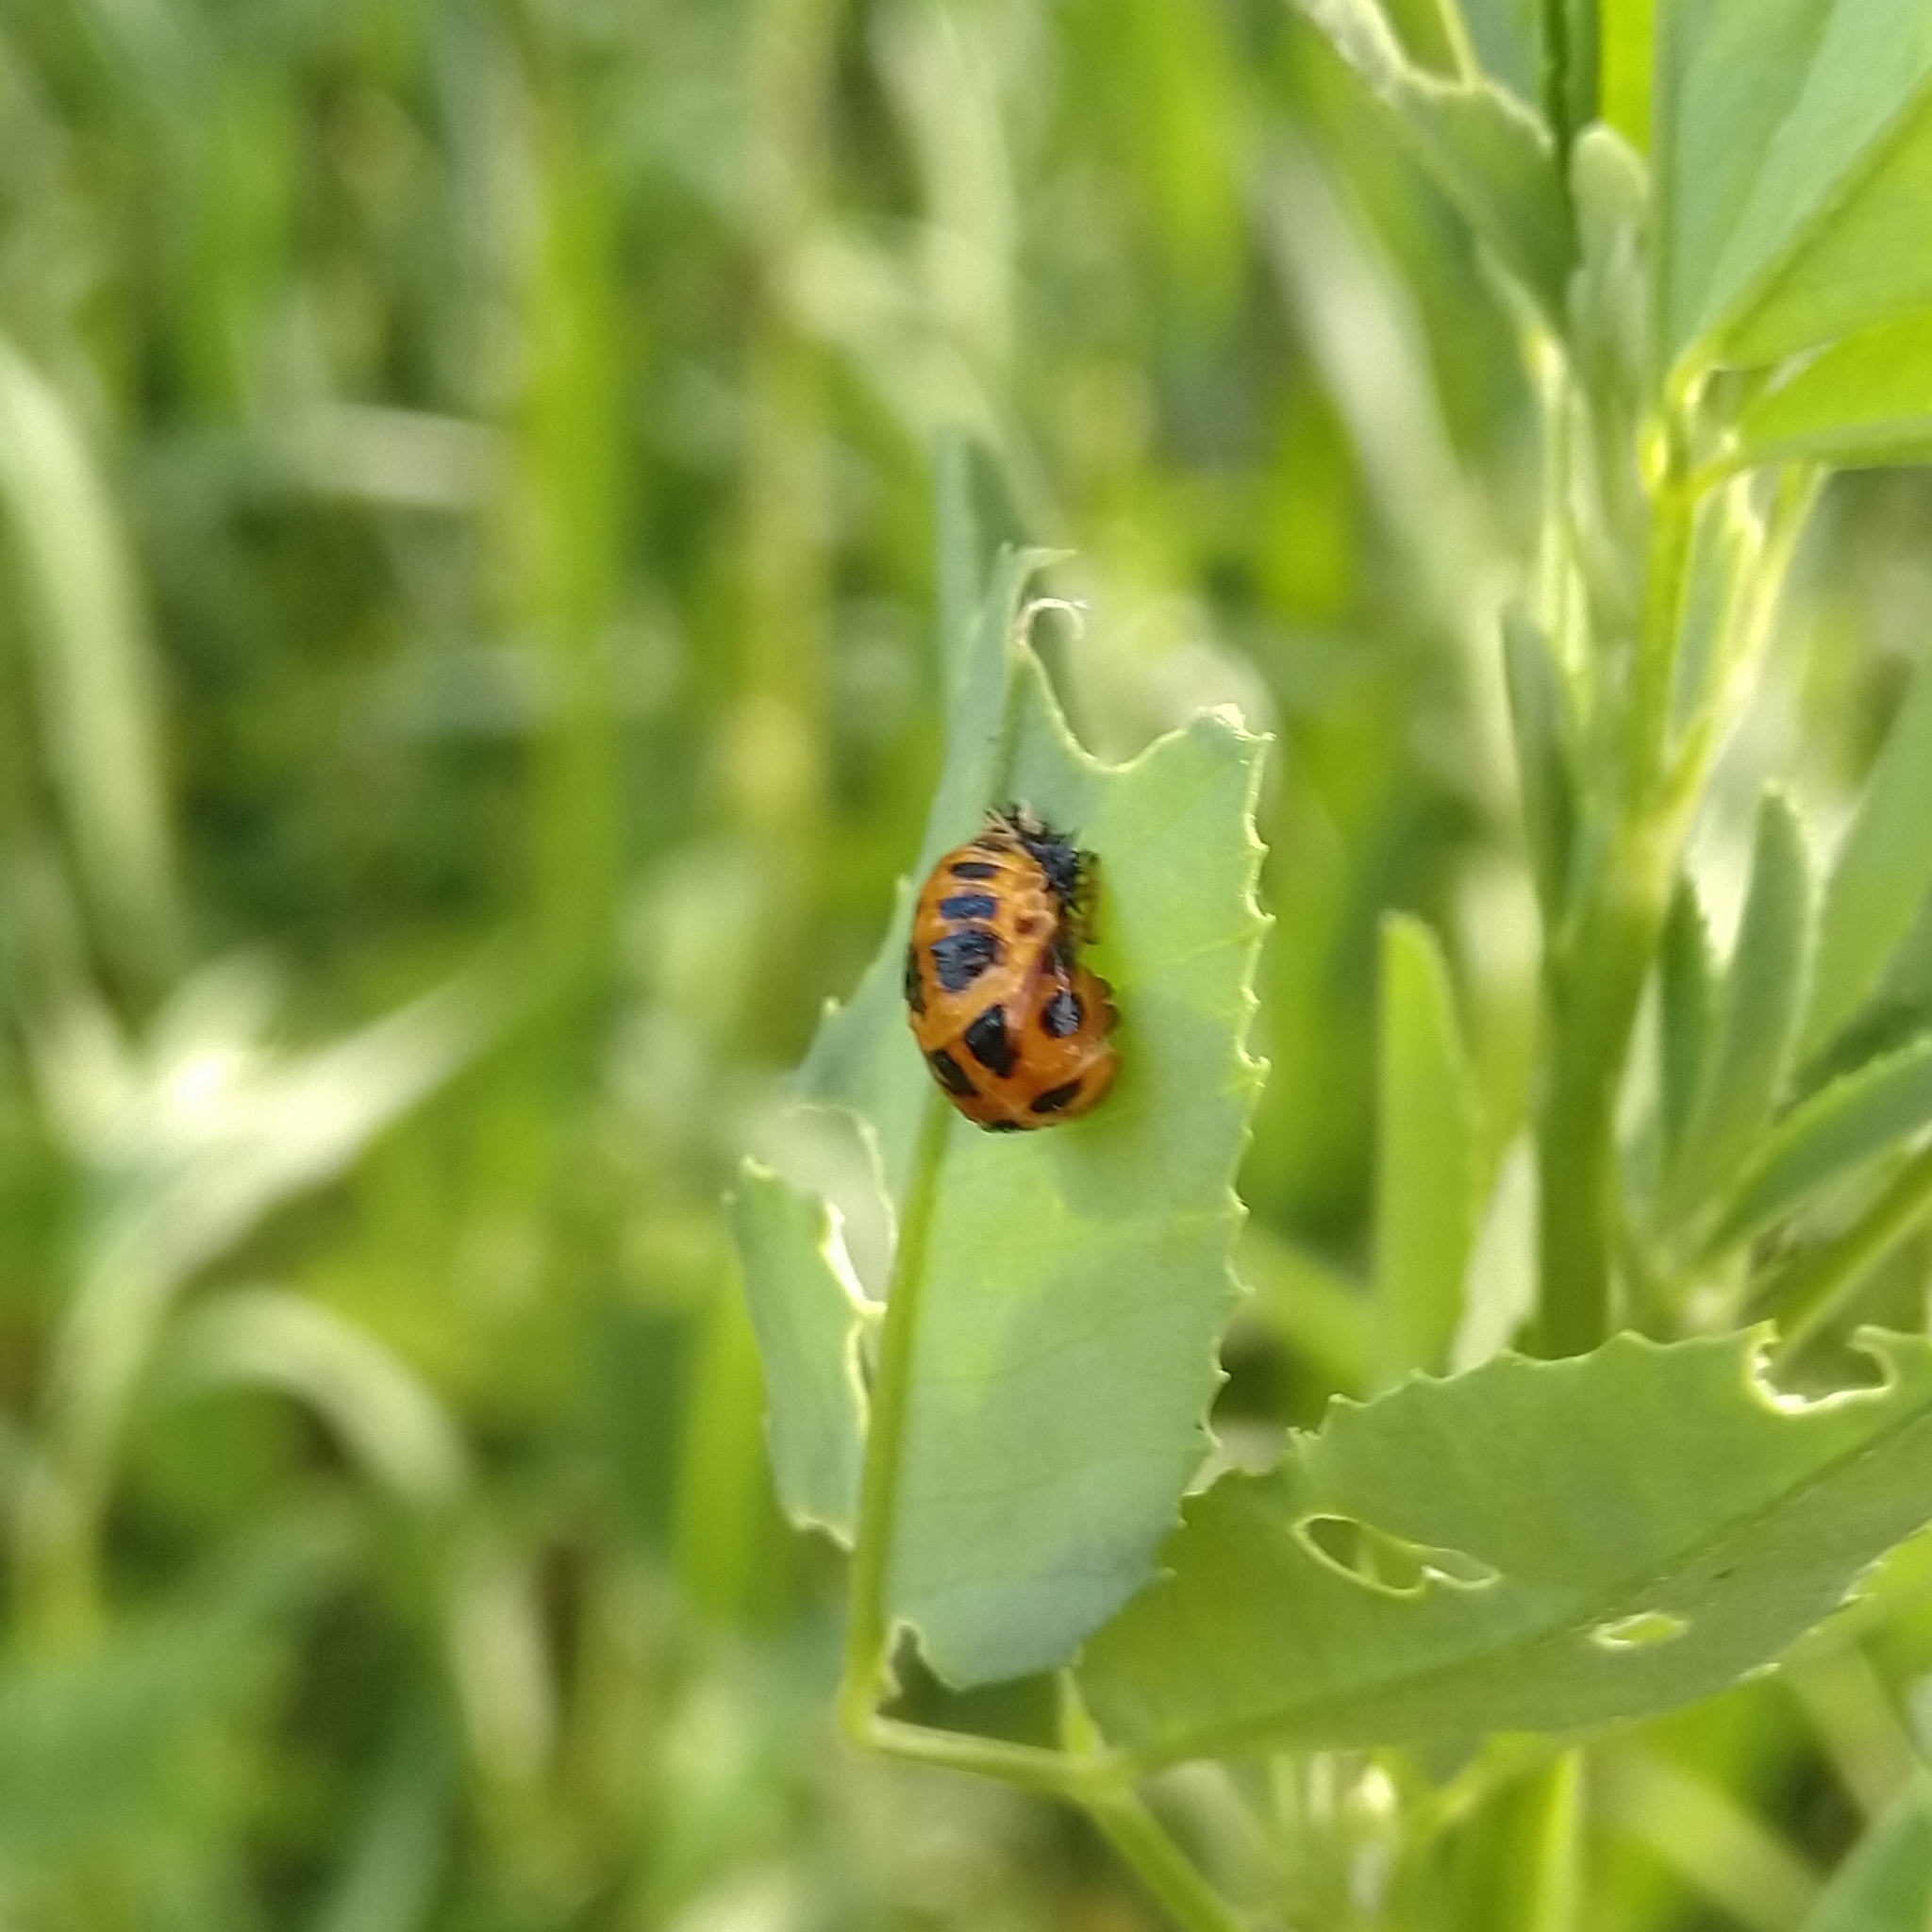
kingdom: Animalia
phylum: Arthropoda
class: Insecta
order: Coleoptera
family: Coccinellidae
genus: Harmonia
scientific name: Harmonia axyridis
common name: Harlequin ladybird
